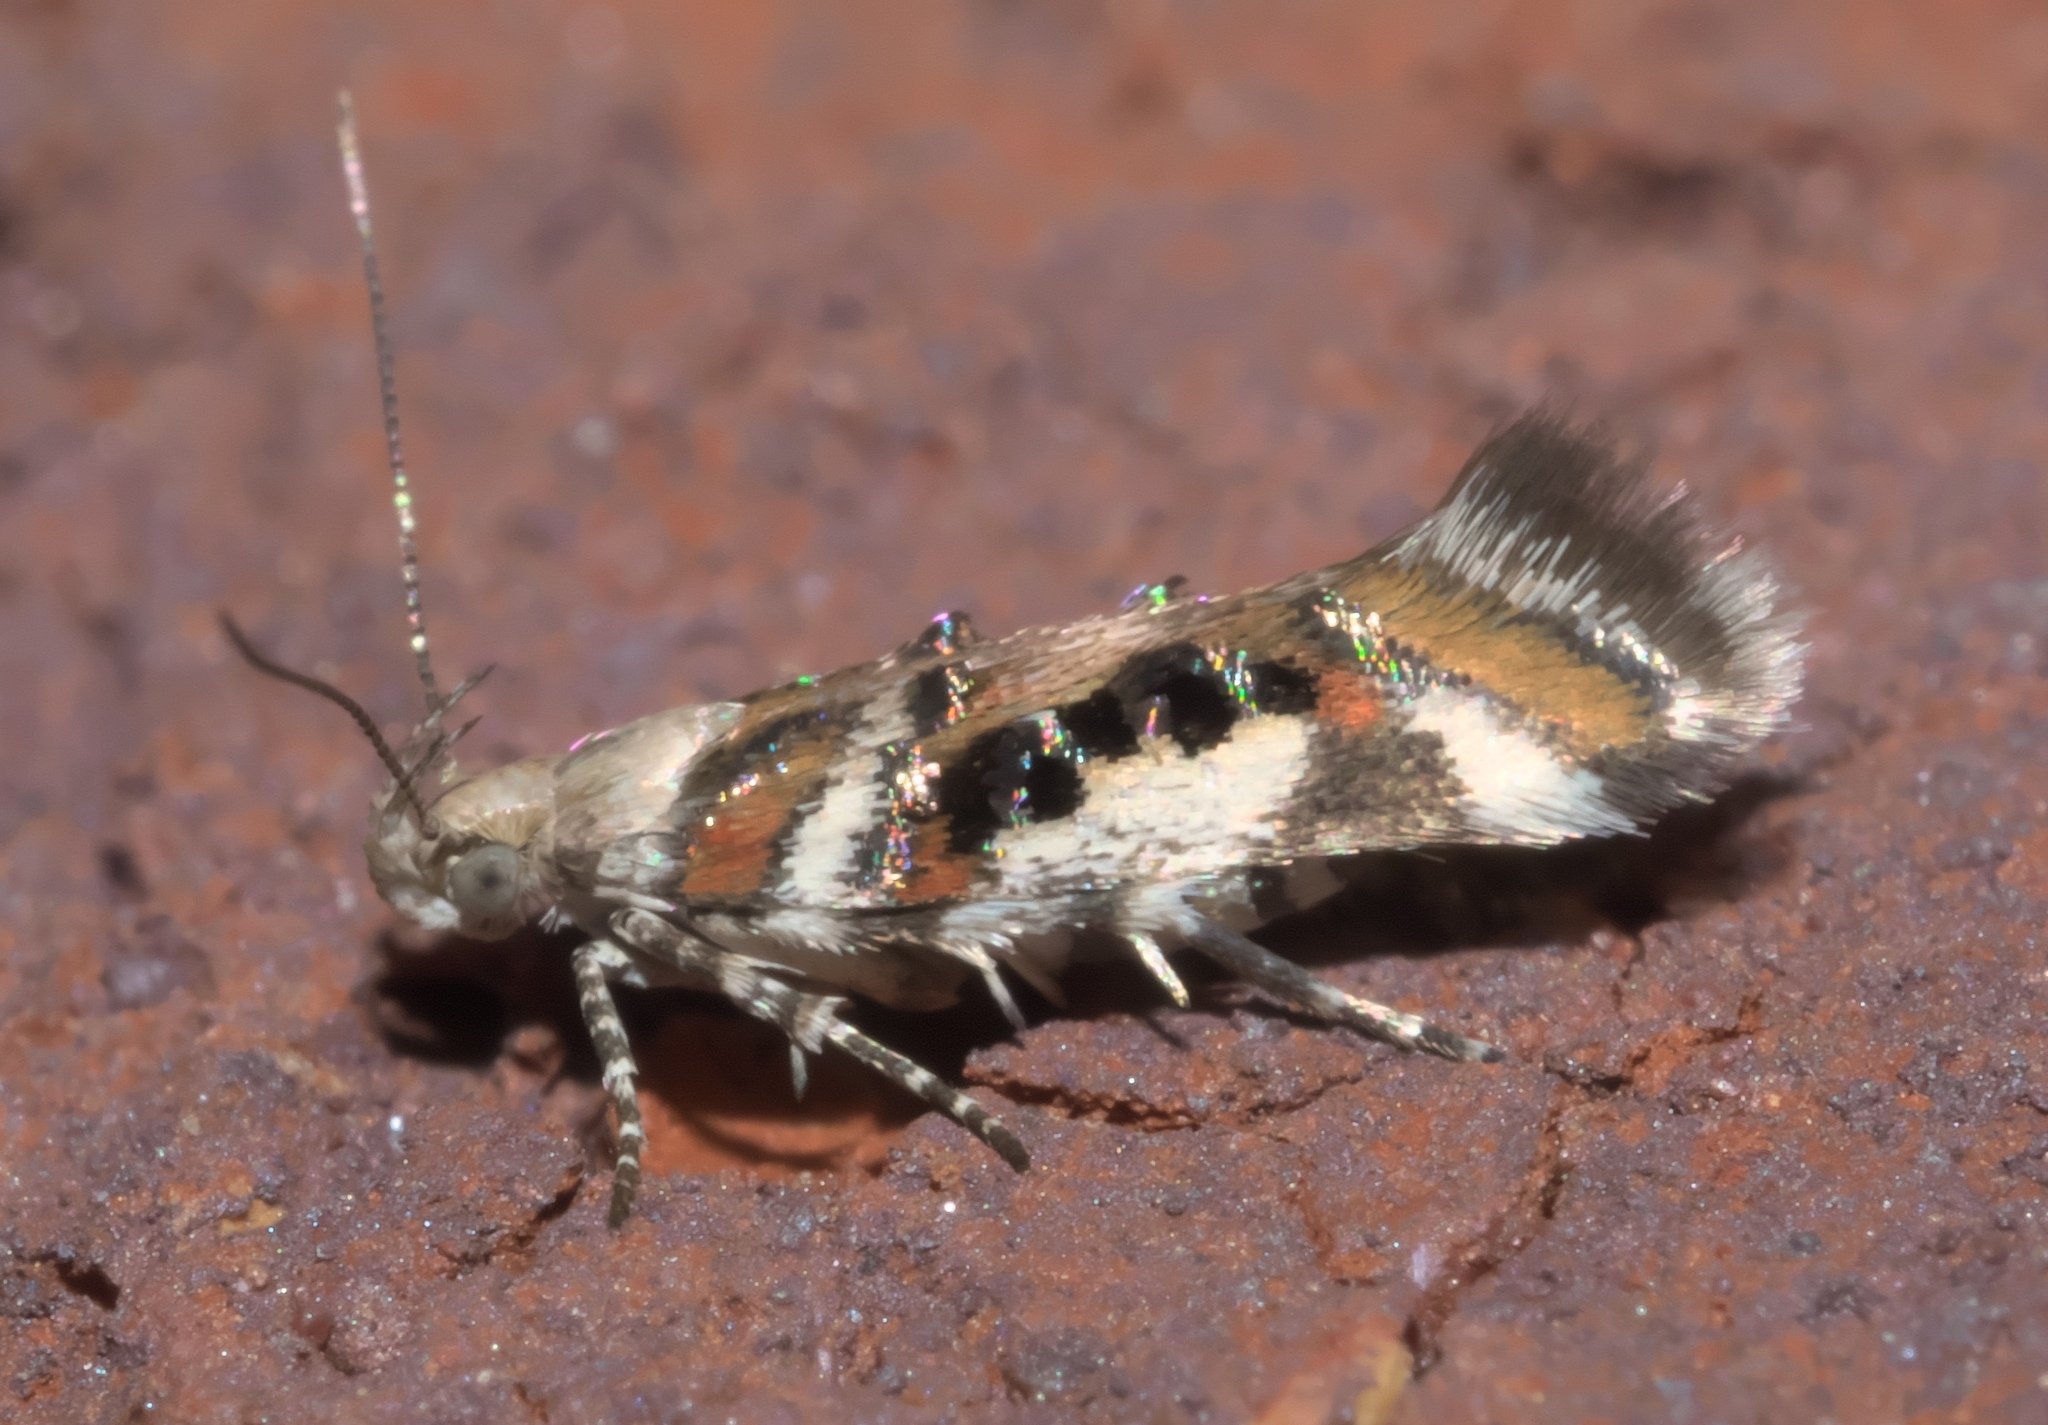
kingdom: Animalia
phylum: Arthropoda
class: Insecta
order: Lepidoptera
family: Gelechiidae
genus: Aristotelia
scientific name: Aristotelia elegantella
